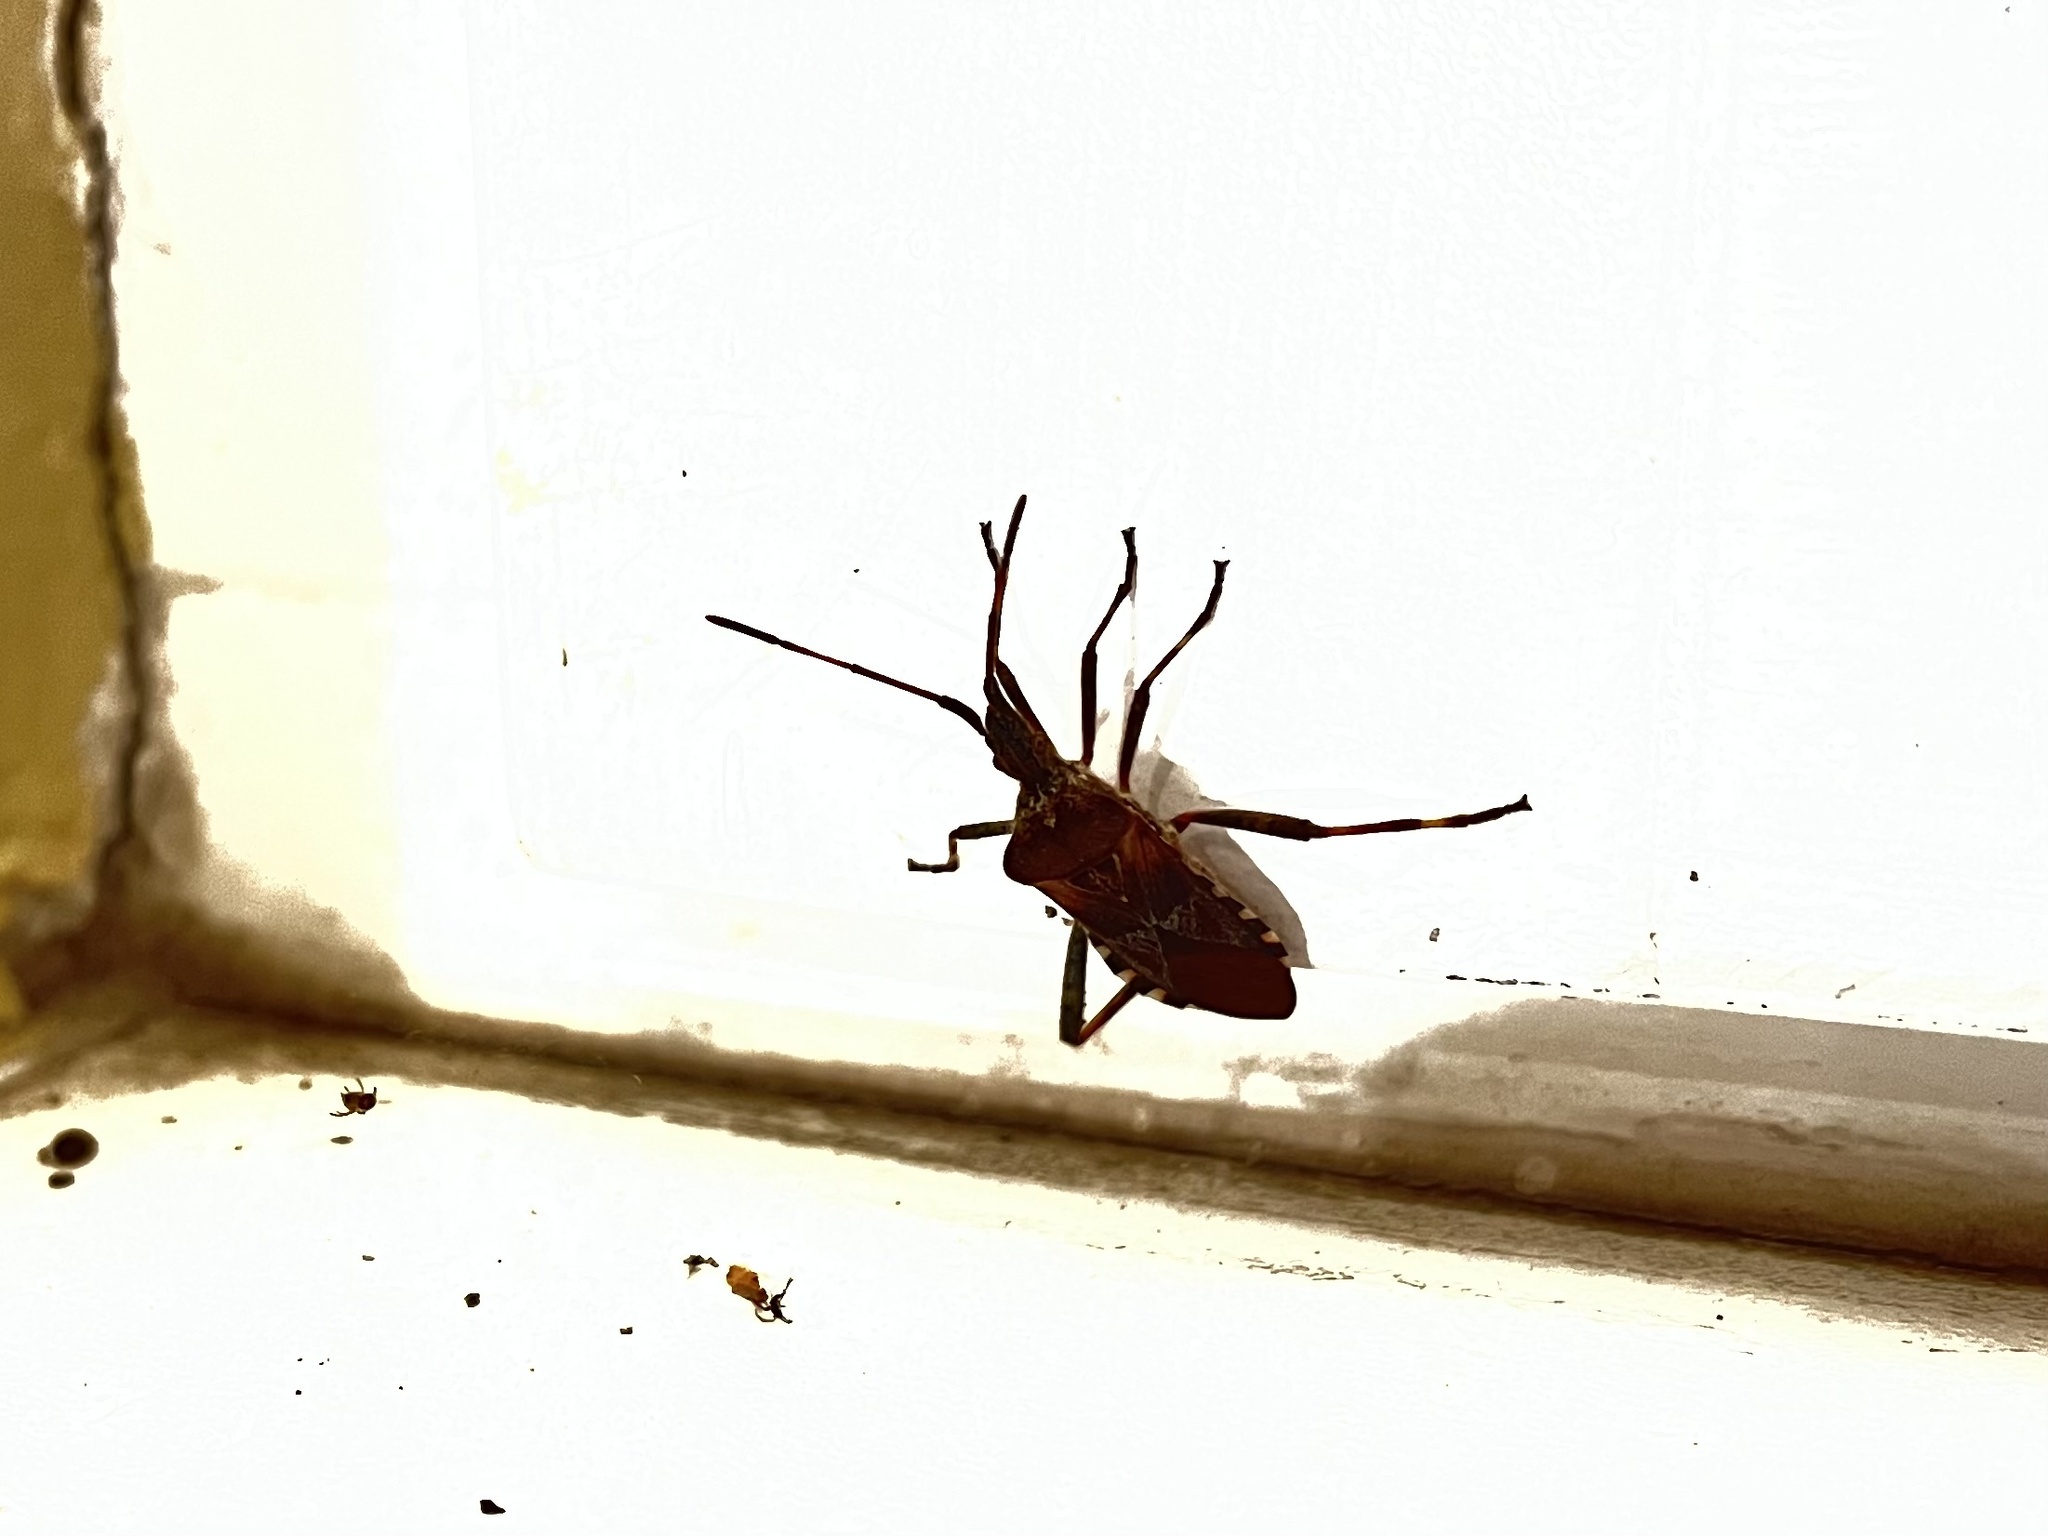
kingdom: Animalia
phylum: Arthropoda
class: Insecta
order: Hemiptera
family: Coreidae
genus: Leptoglossus
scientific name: Leptoglossus occidentalis
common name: Western conifer-seed bug
